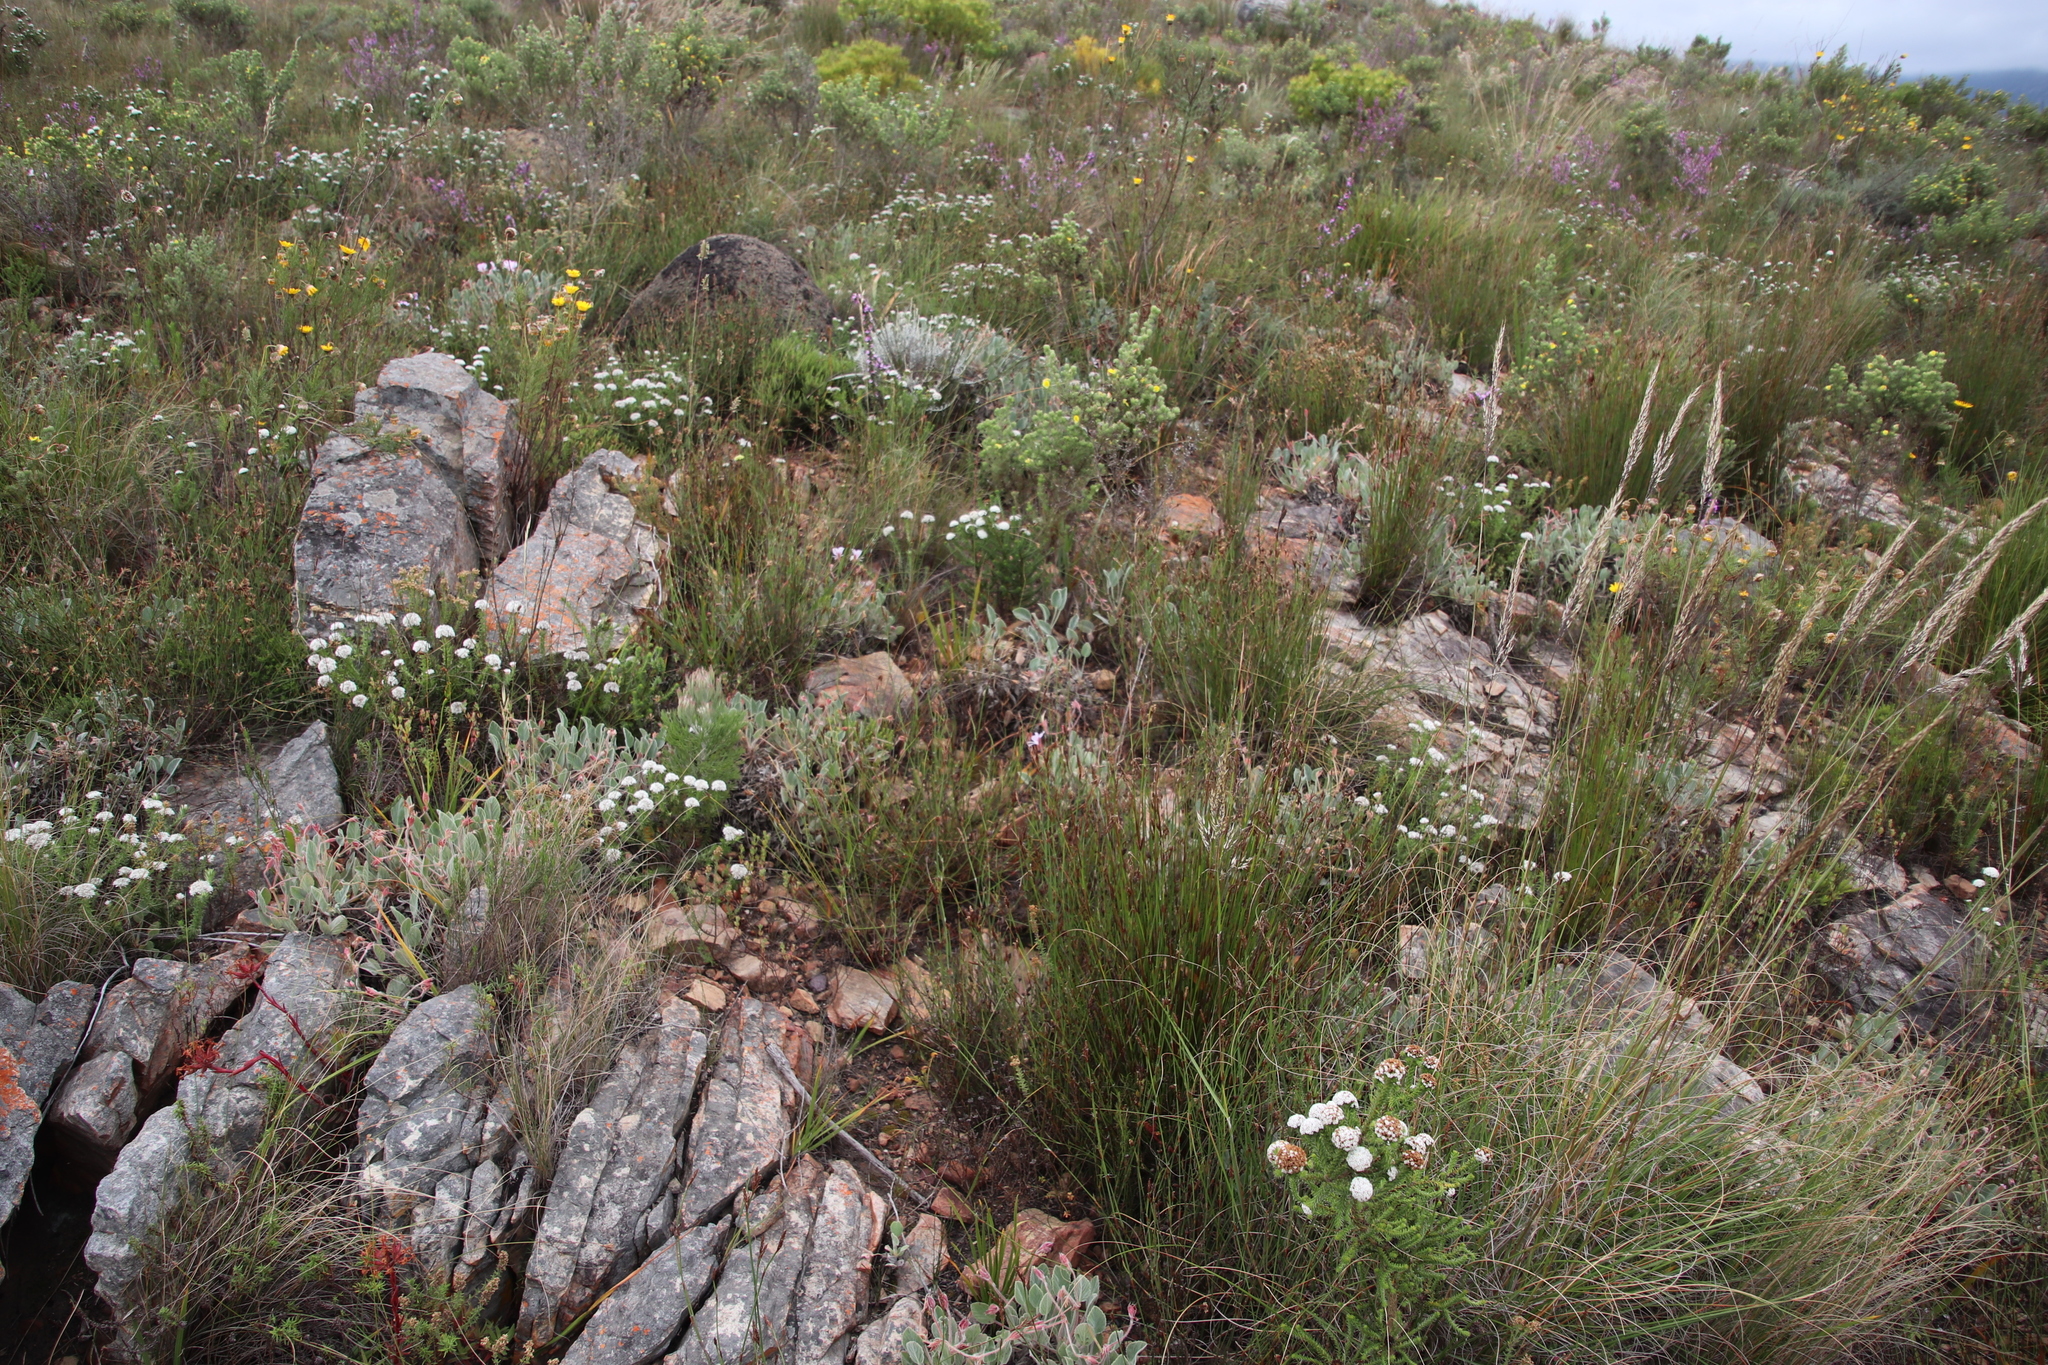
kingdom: Plantae
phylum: Tracheophyta
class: Magnoliopsida
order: Geraniales
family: Geraniaceae
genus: Pelargonium
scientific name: Pelargonium ovale
